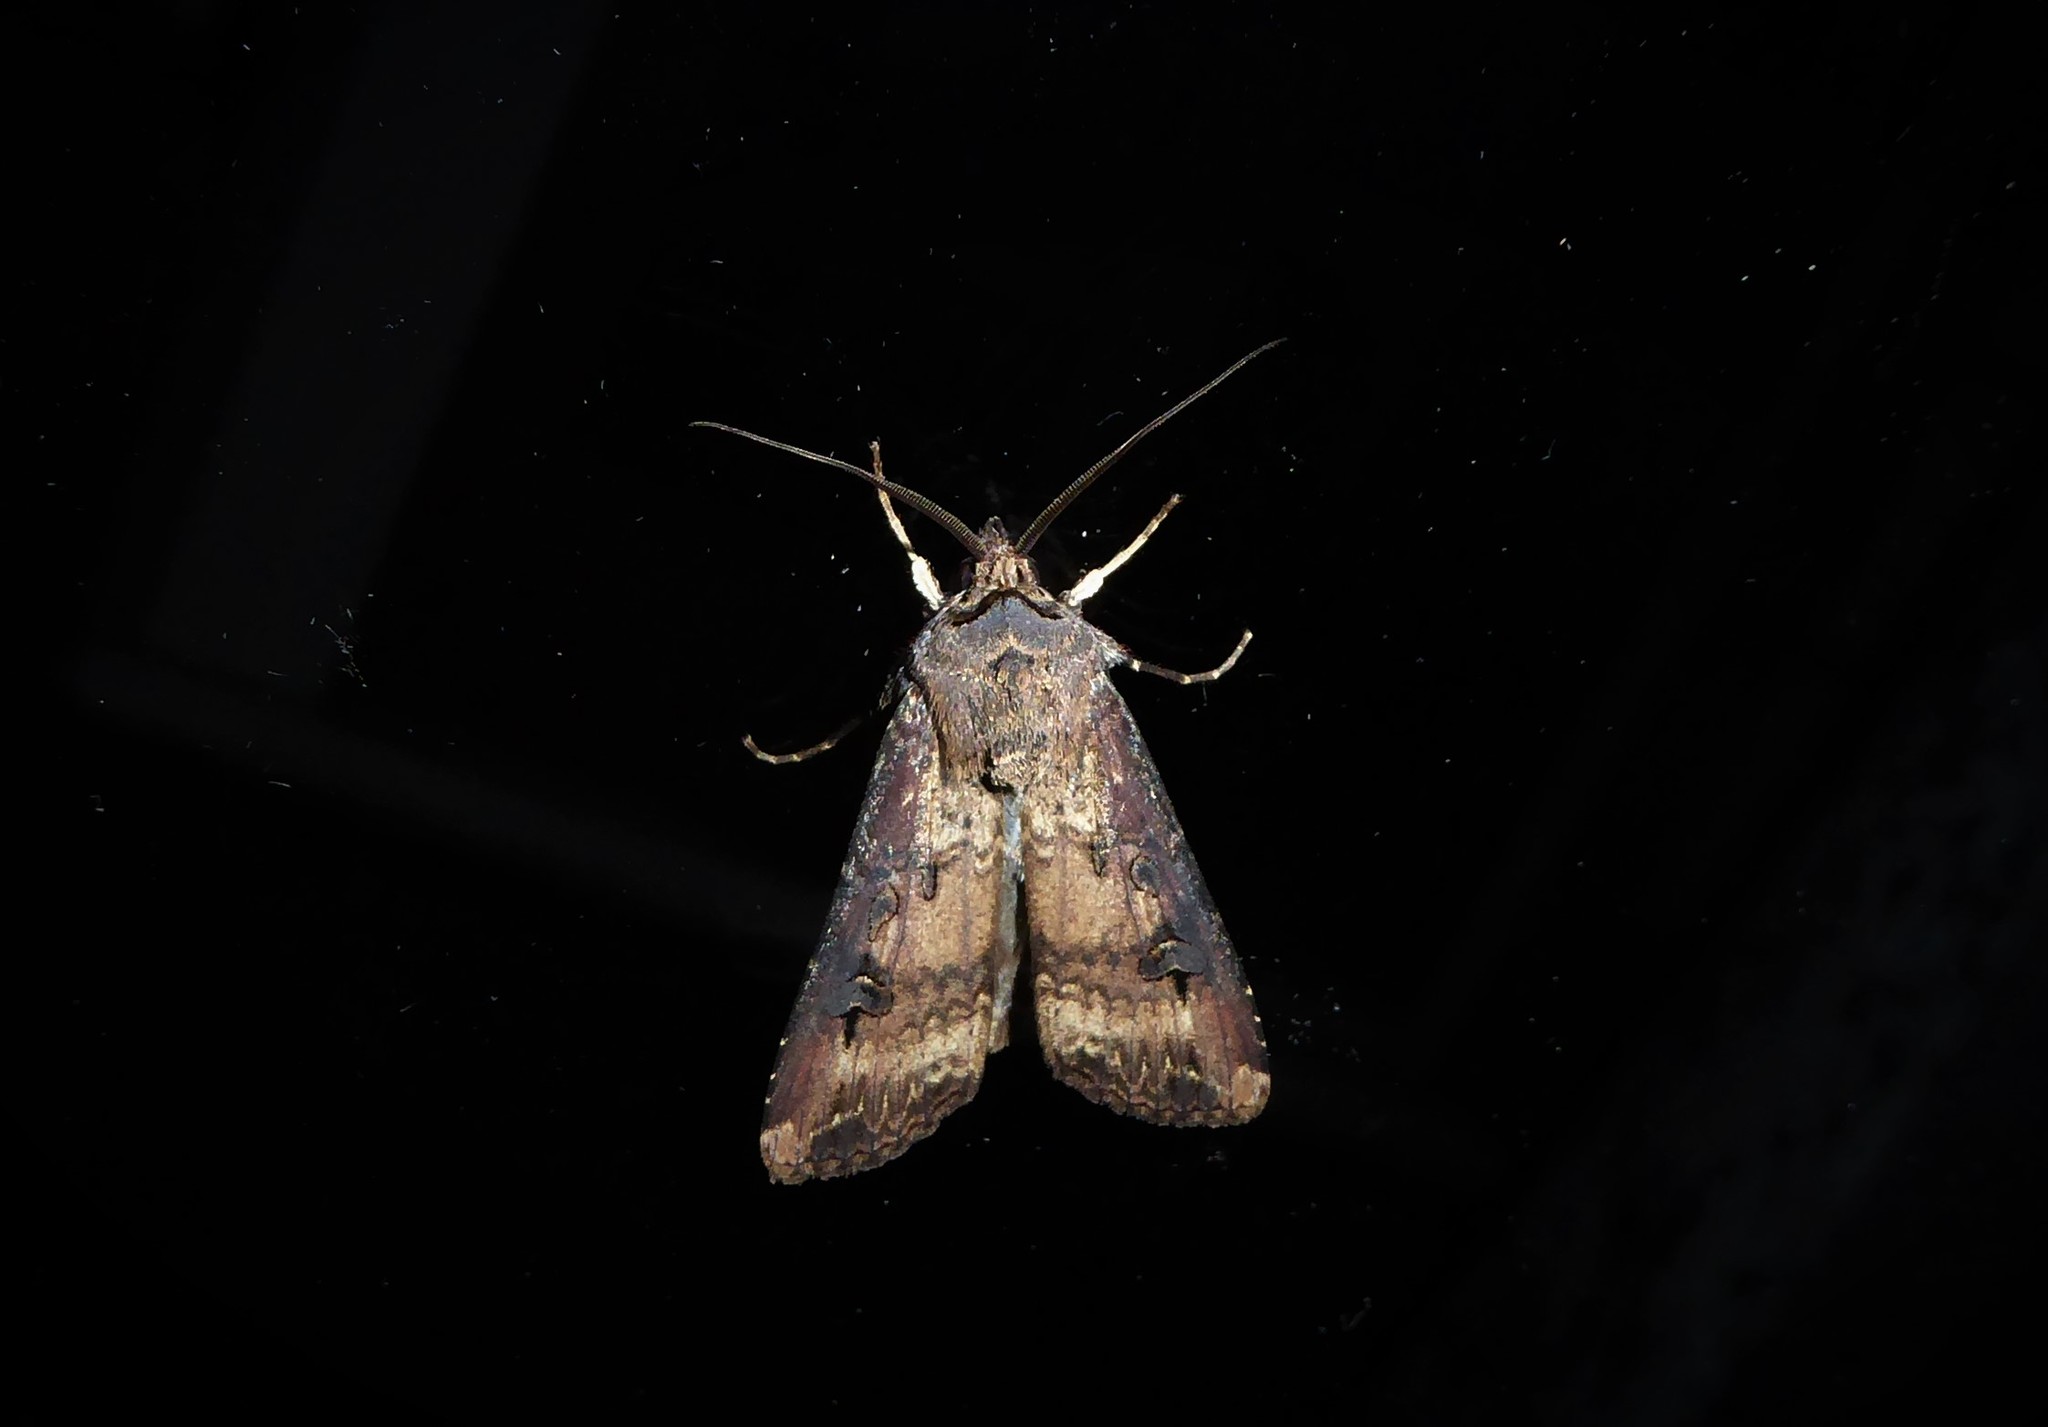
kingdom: Animalia
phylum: Arthropoda
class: Insecta
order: Lepidoptera
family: Noctuidae
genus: Agrotis
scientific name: Agrotis ipsilon
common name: Dark sword-grass
